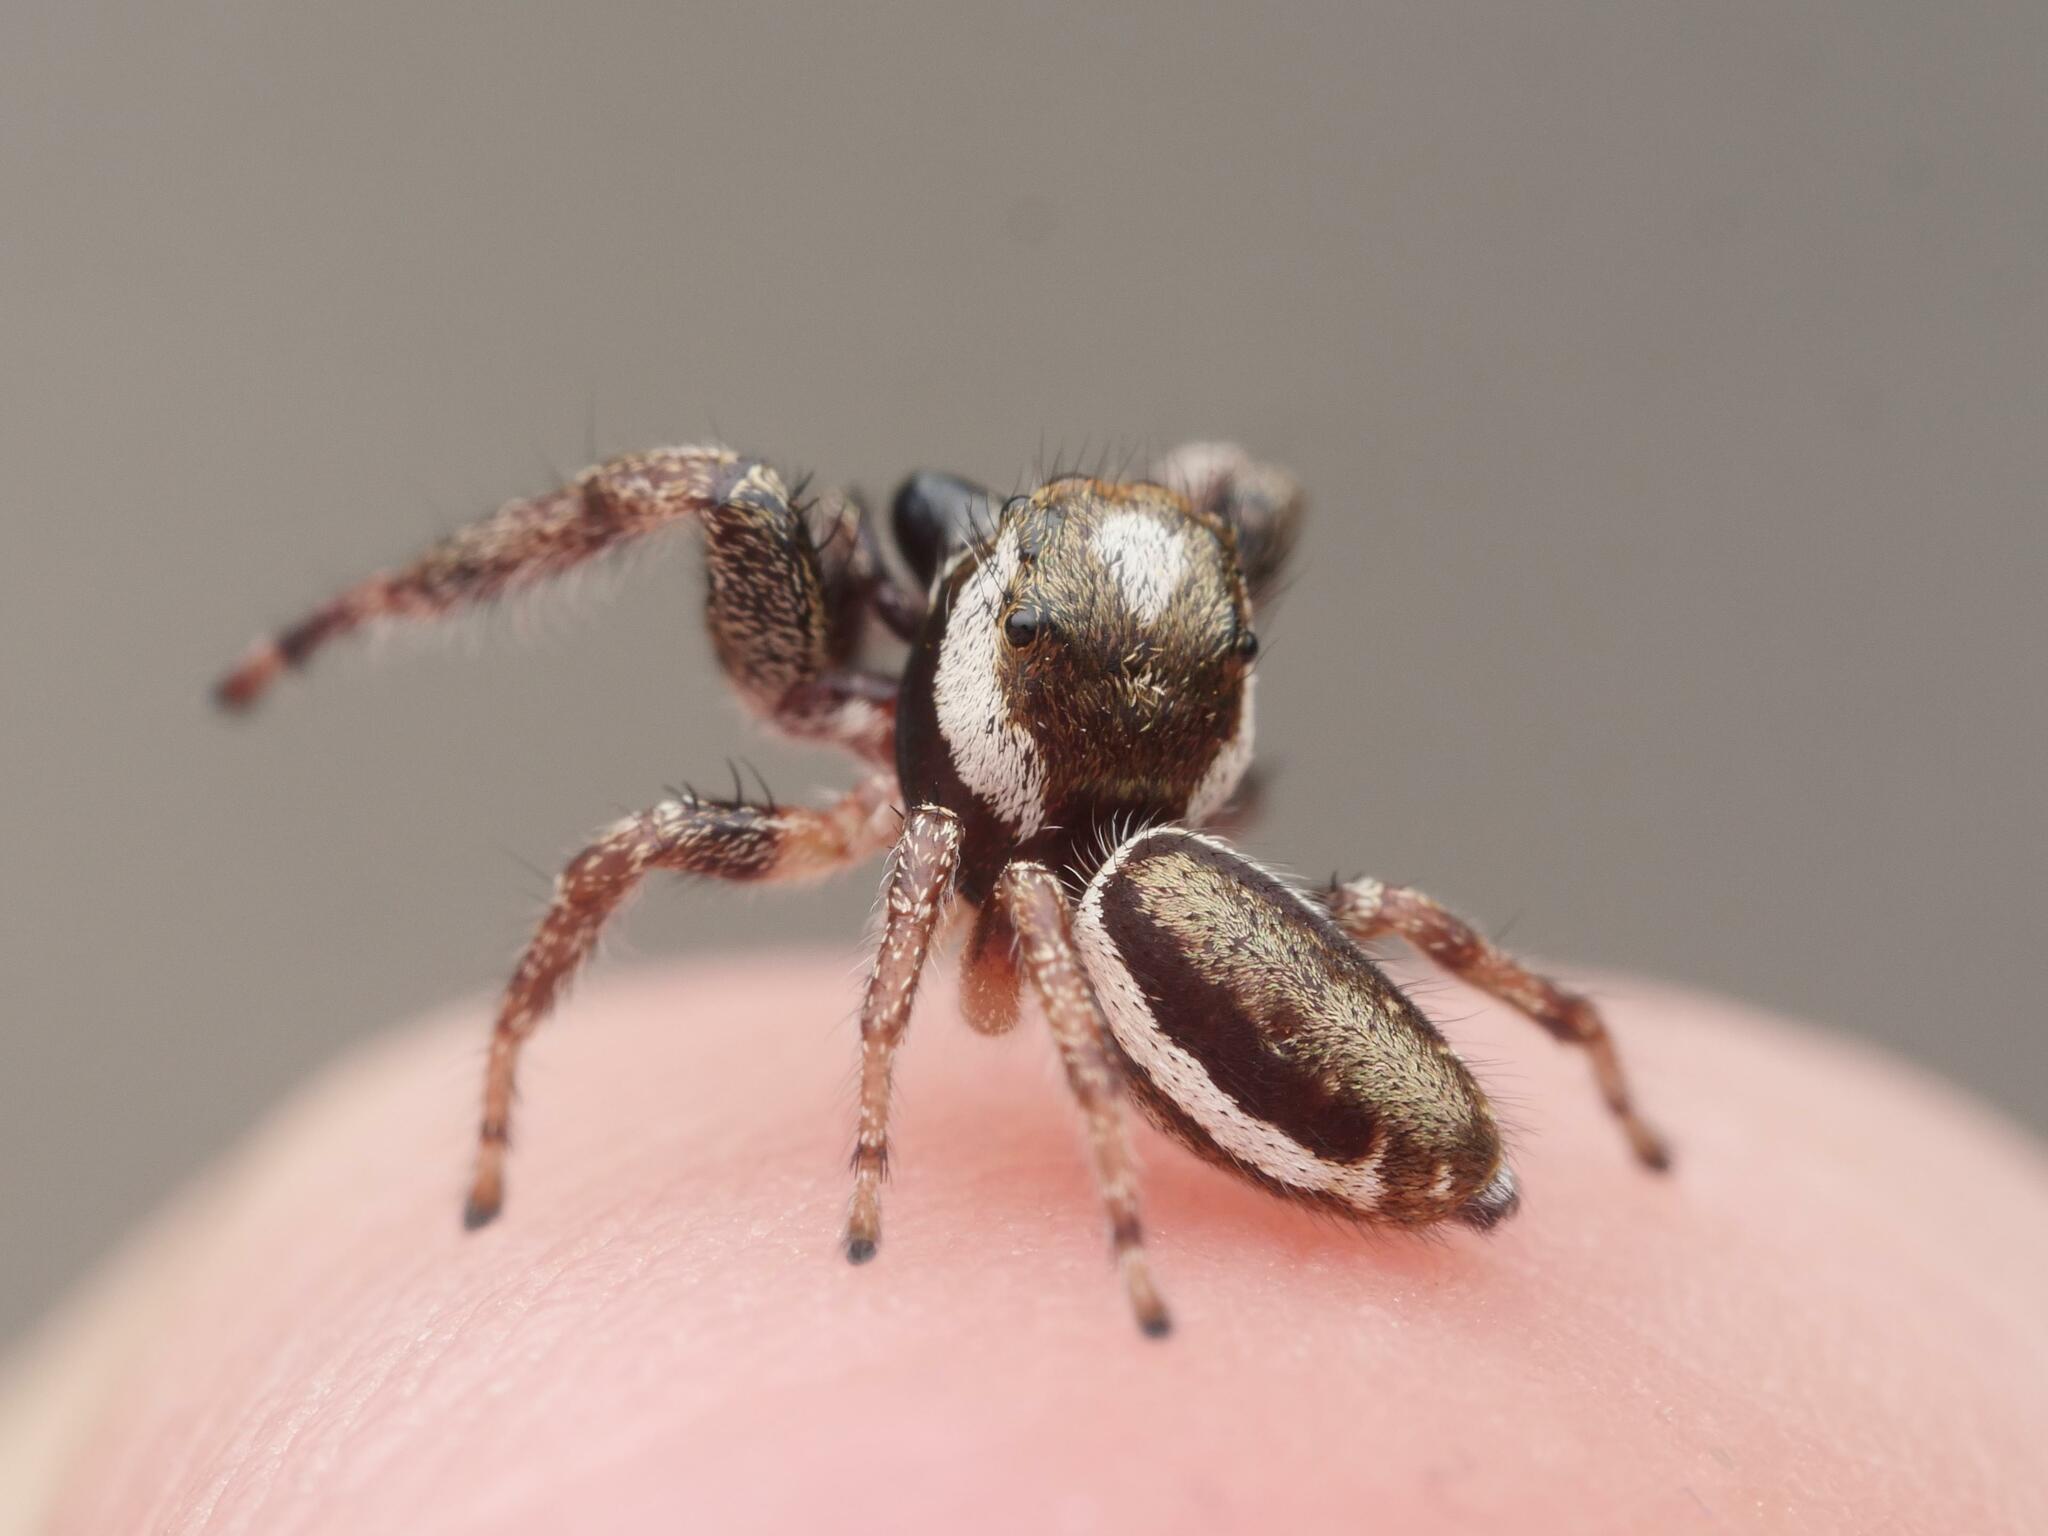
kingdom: Animalia
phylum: Arthropoda
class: Arachnida
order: Araneae
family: Salticidae
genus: Eris
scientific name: Eris militaris
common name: Bronze jumper
